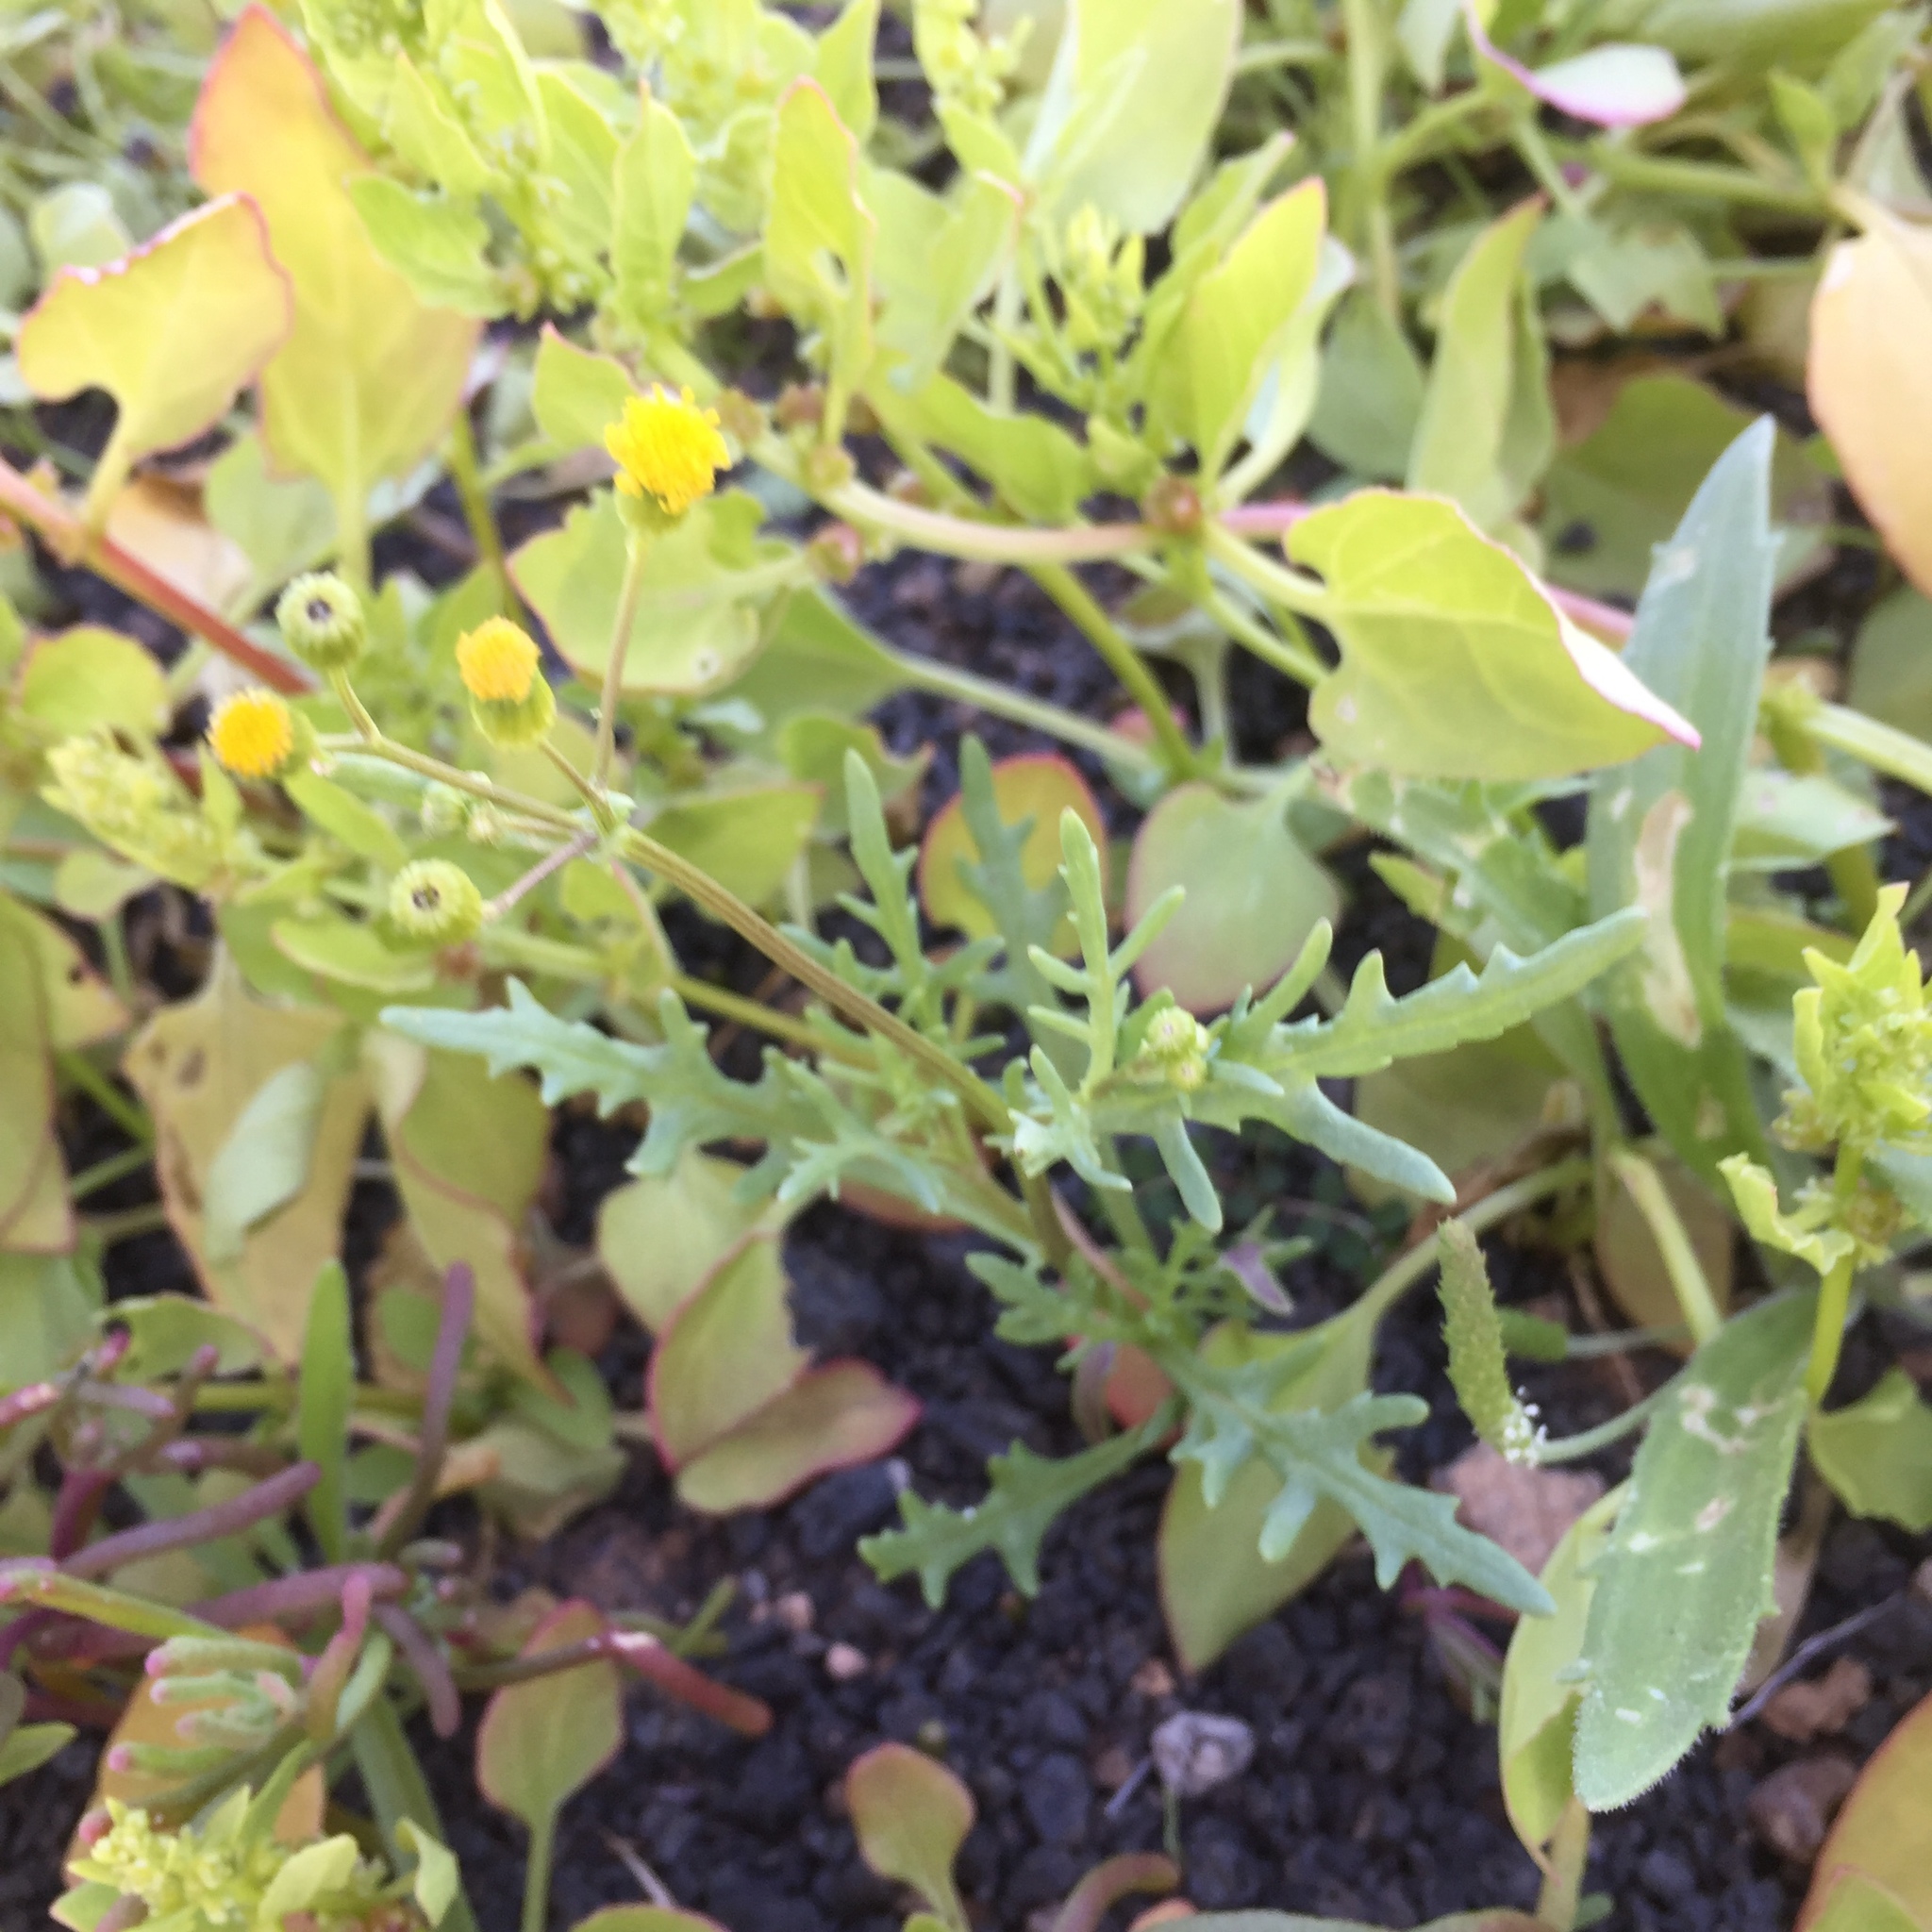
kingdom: Plantae
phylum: Tracheophyta
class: Magnoliopsida
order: Asterales
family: Asteraceae
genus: Senecio
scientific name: Senecio vulgaris
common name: Old-man-in-the-spring
